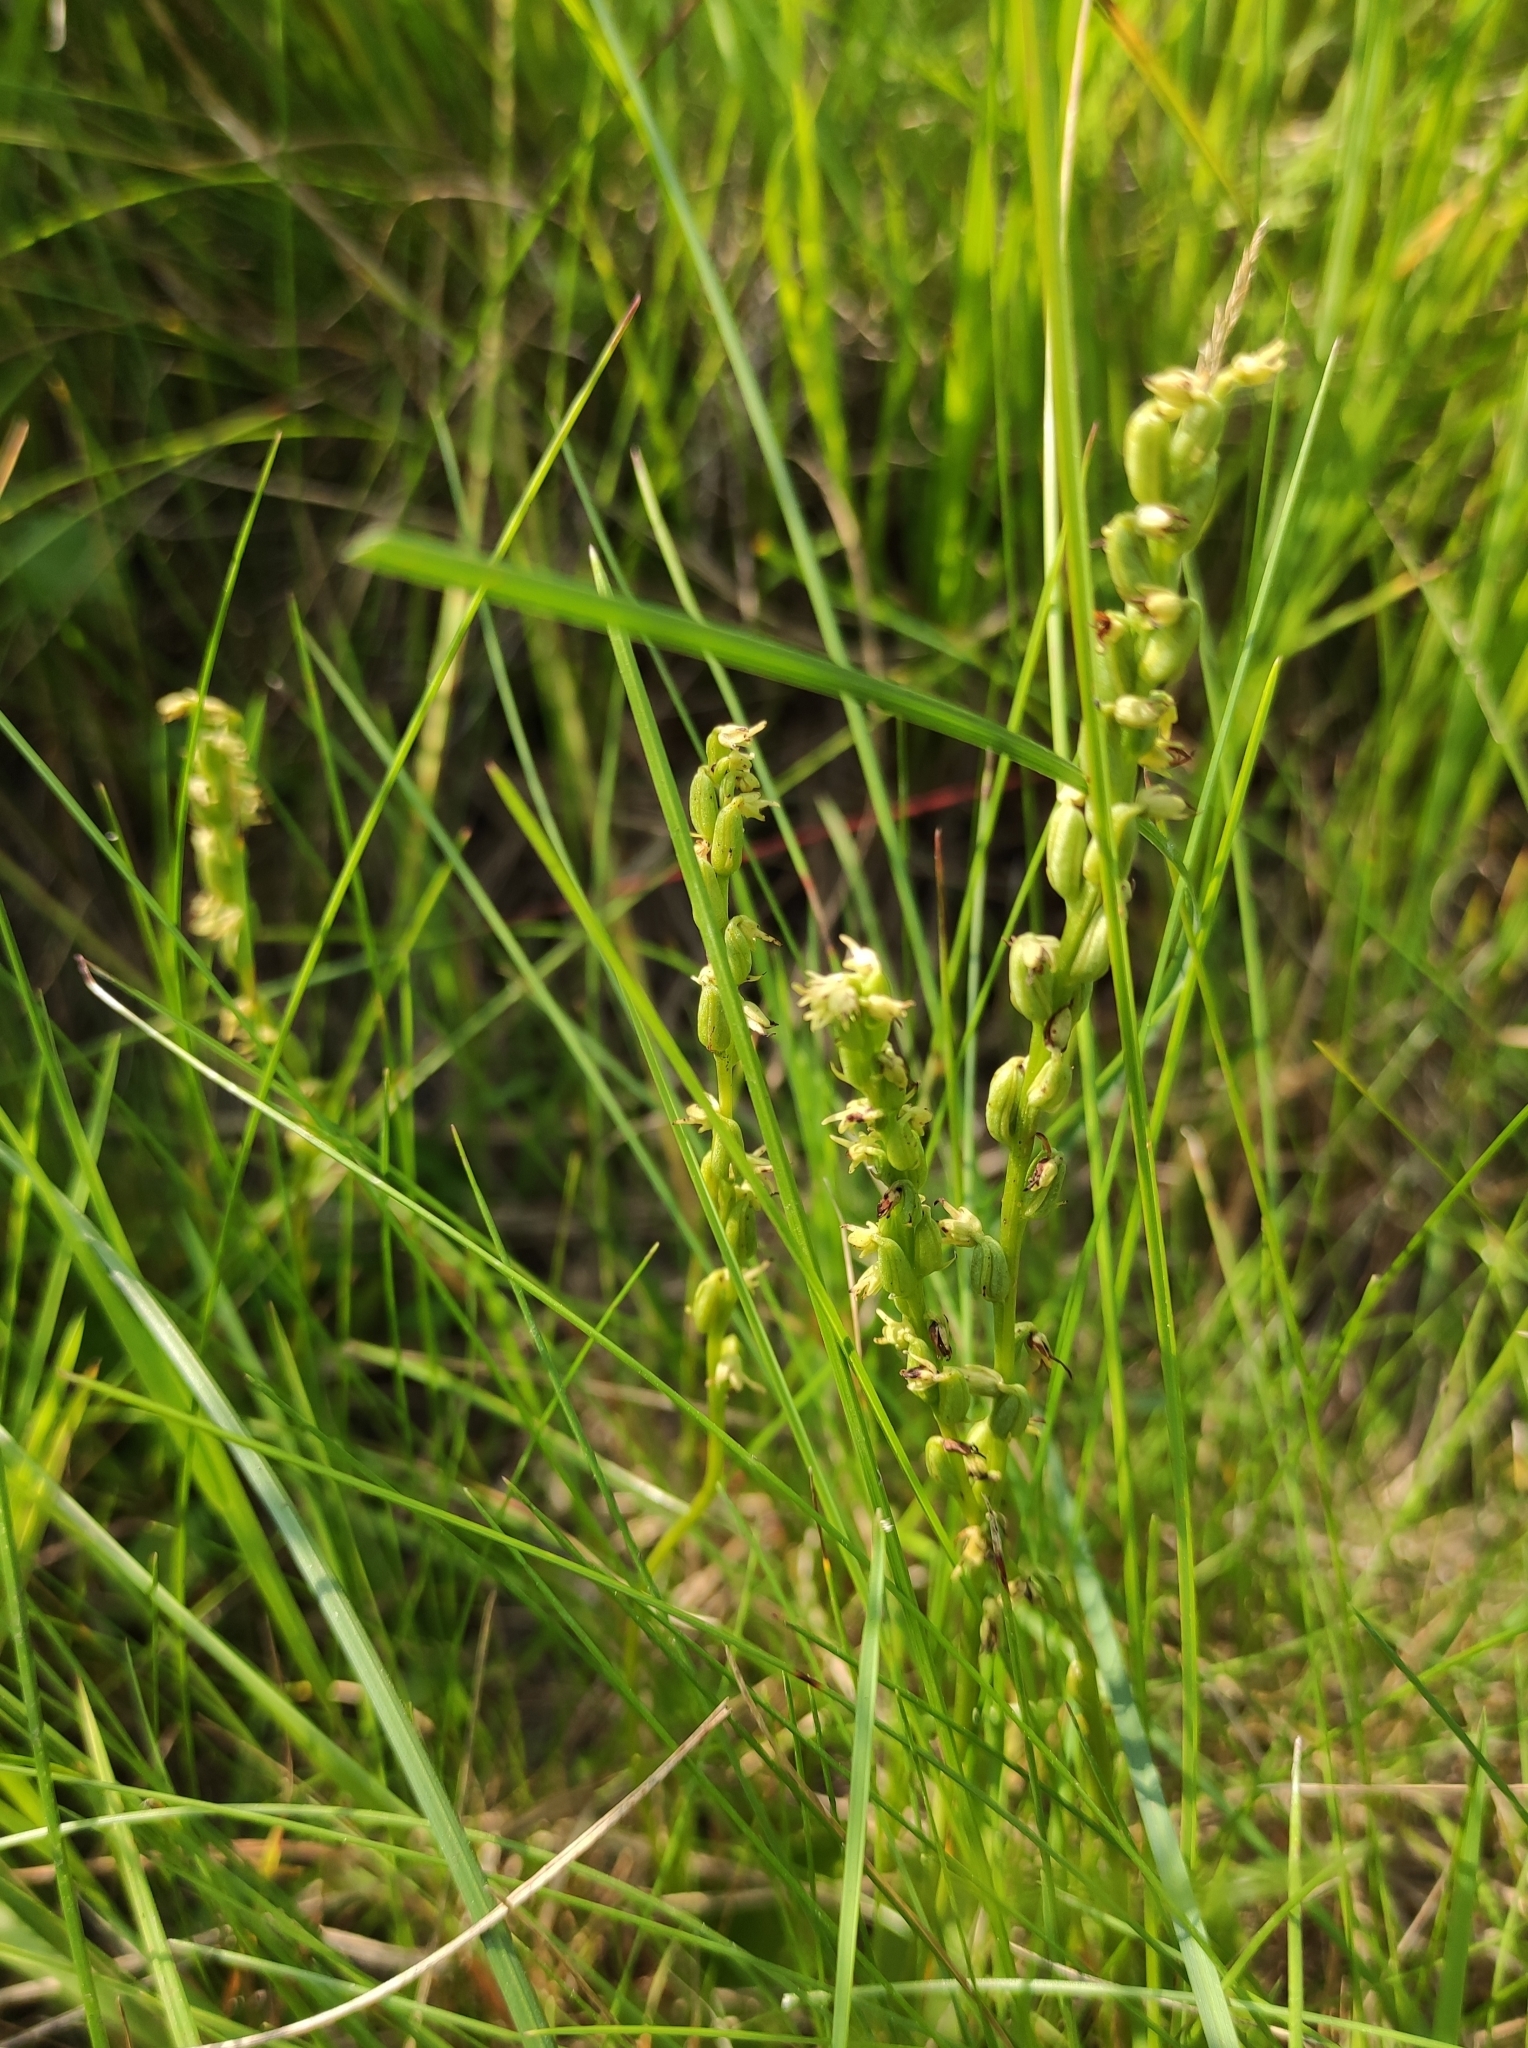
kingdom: Plantae
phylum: Tracheophyta
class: Liliopsida
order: Asparagales
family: Orchidaceae
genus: Herminium
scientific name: Herminium monorchis
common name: Musk orchid
